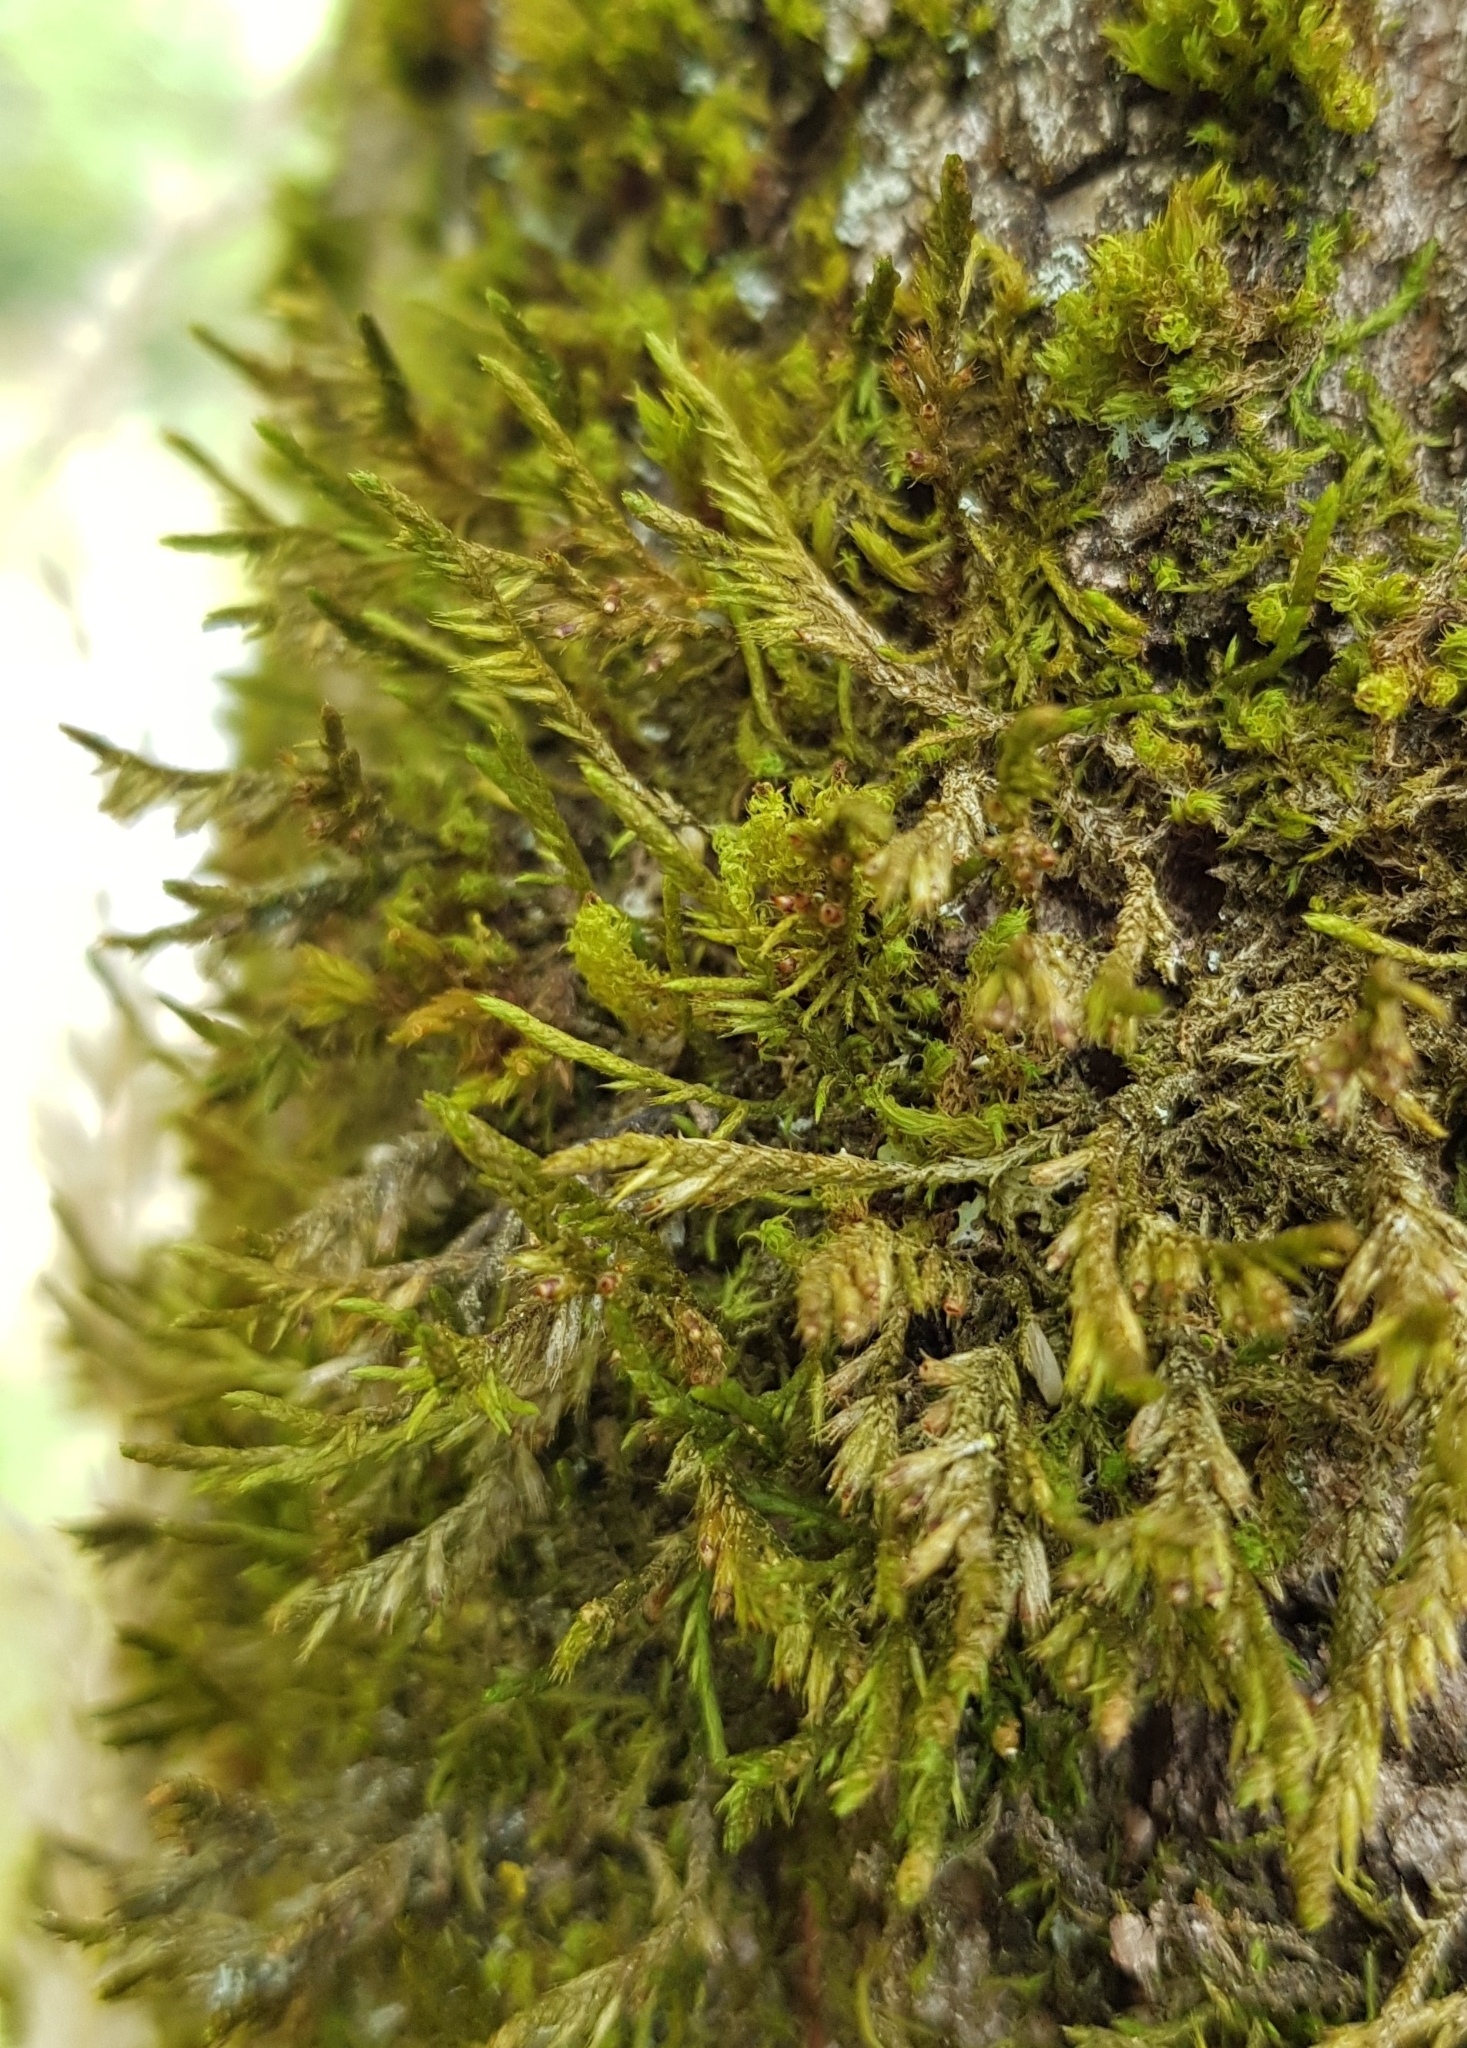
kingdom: Plantae
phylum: Bryophyta
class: Bryopsida
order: Hypnales
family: Cryphaeaceae
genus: Cryphaea
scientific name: Cryphaea heteromalla
